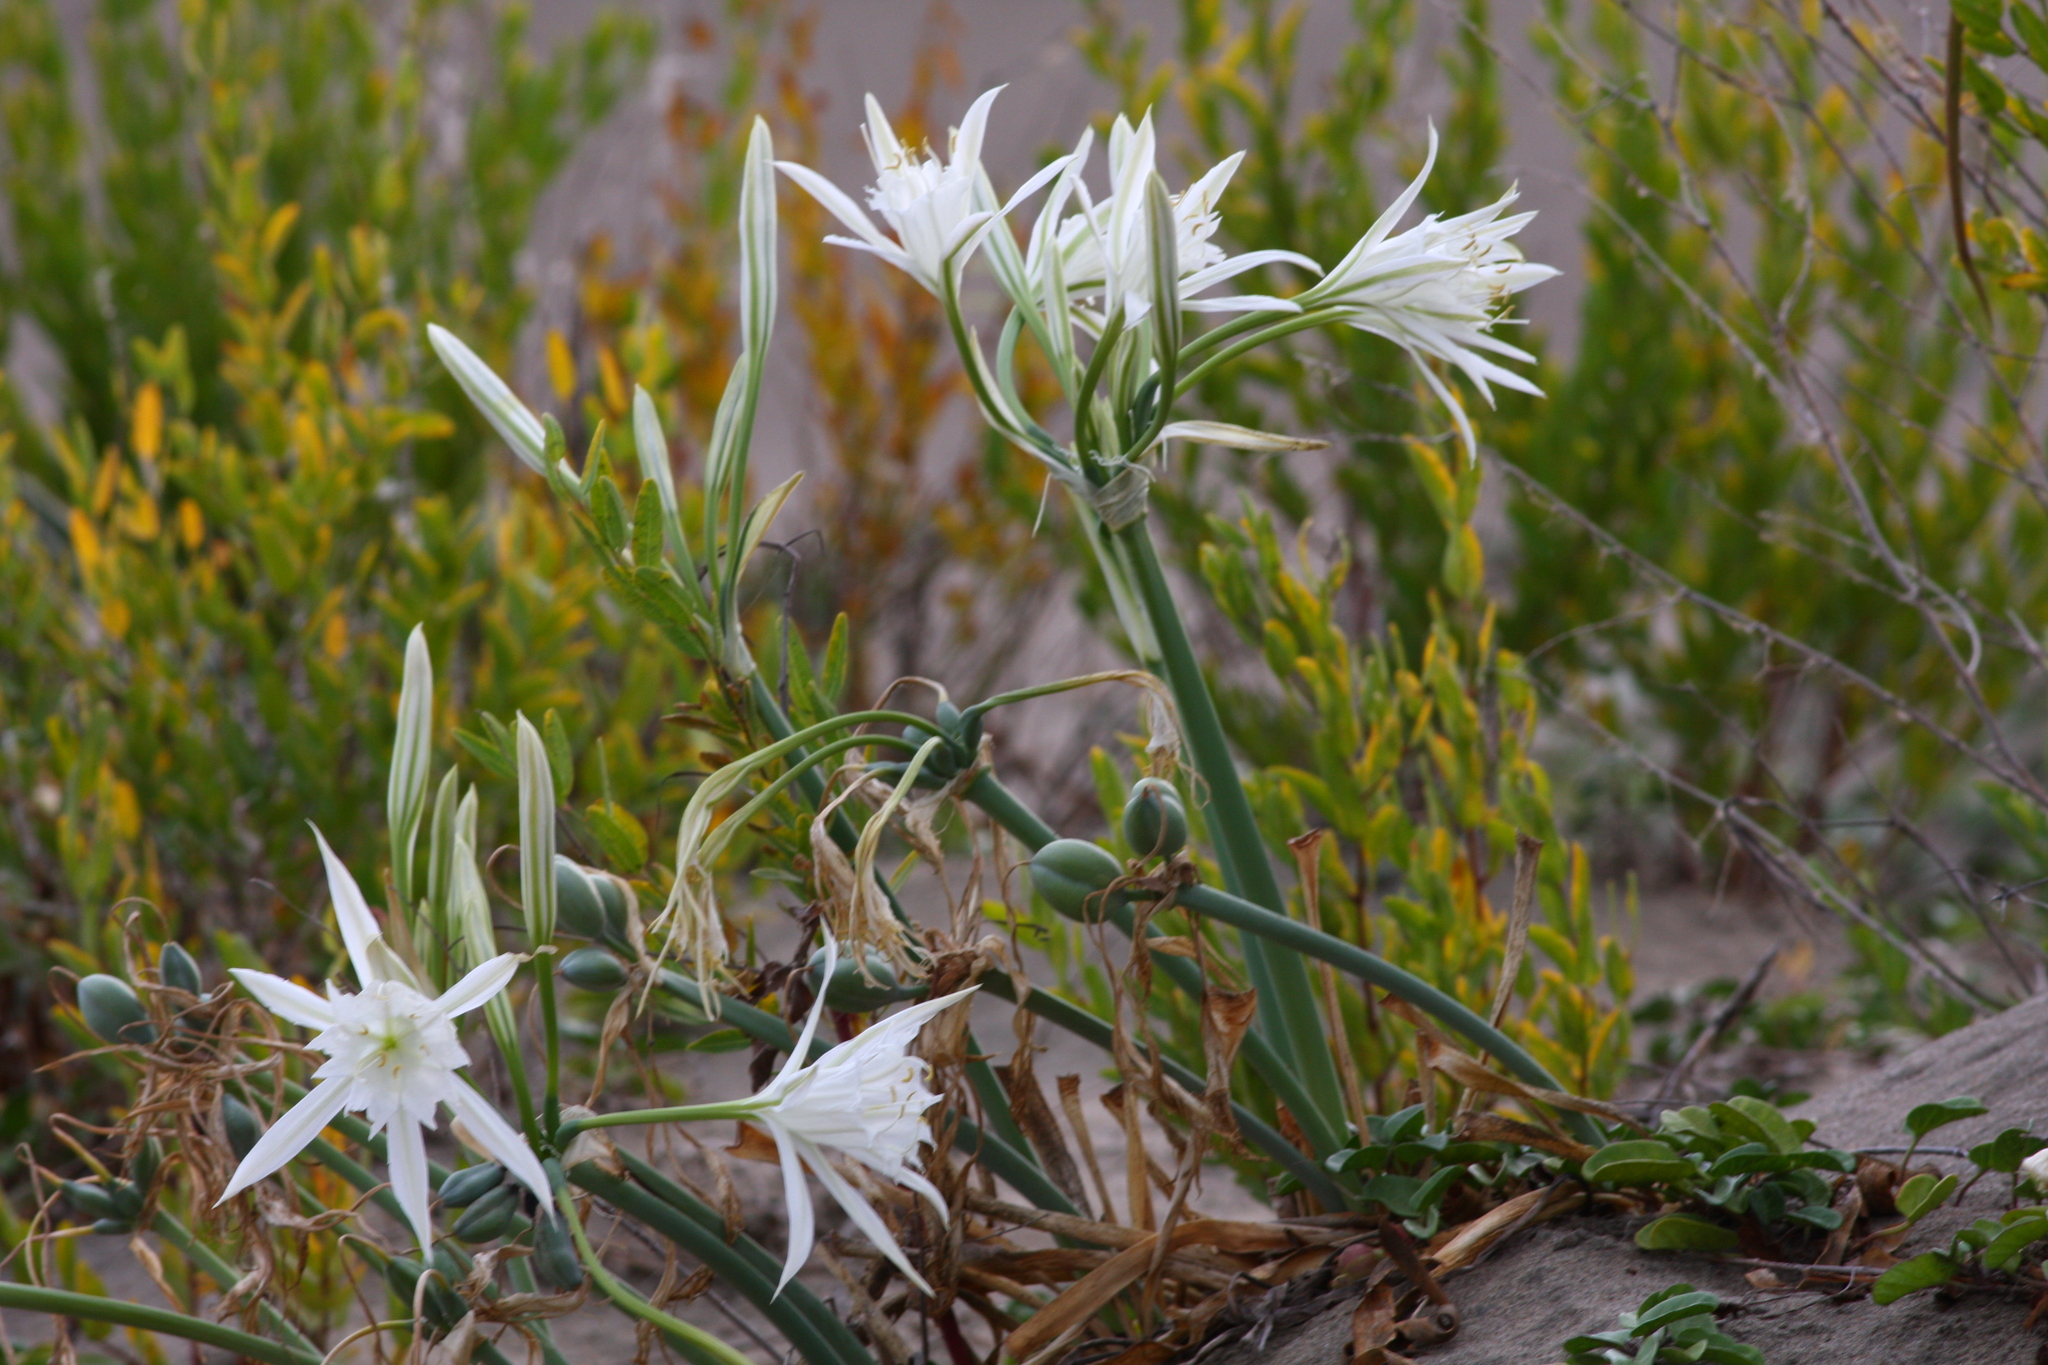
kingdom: Plantae
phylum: Tracheophyta
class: Liliopsida
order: Asparagales
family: Amaryllidaceae
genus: Pancratium
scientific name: Pancratium maritimum
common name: Sea-daffodil
